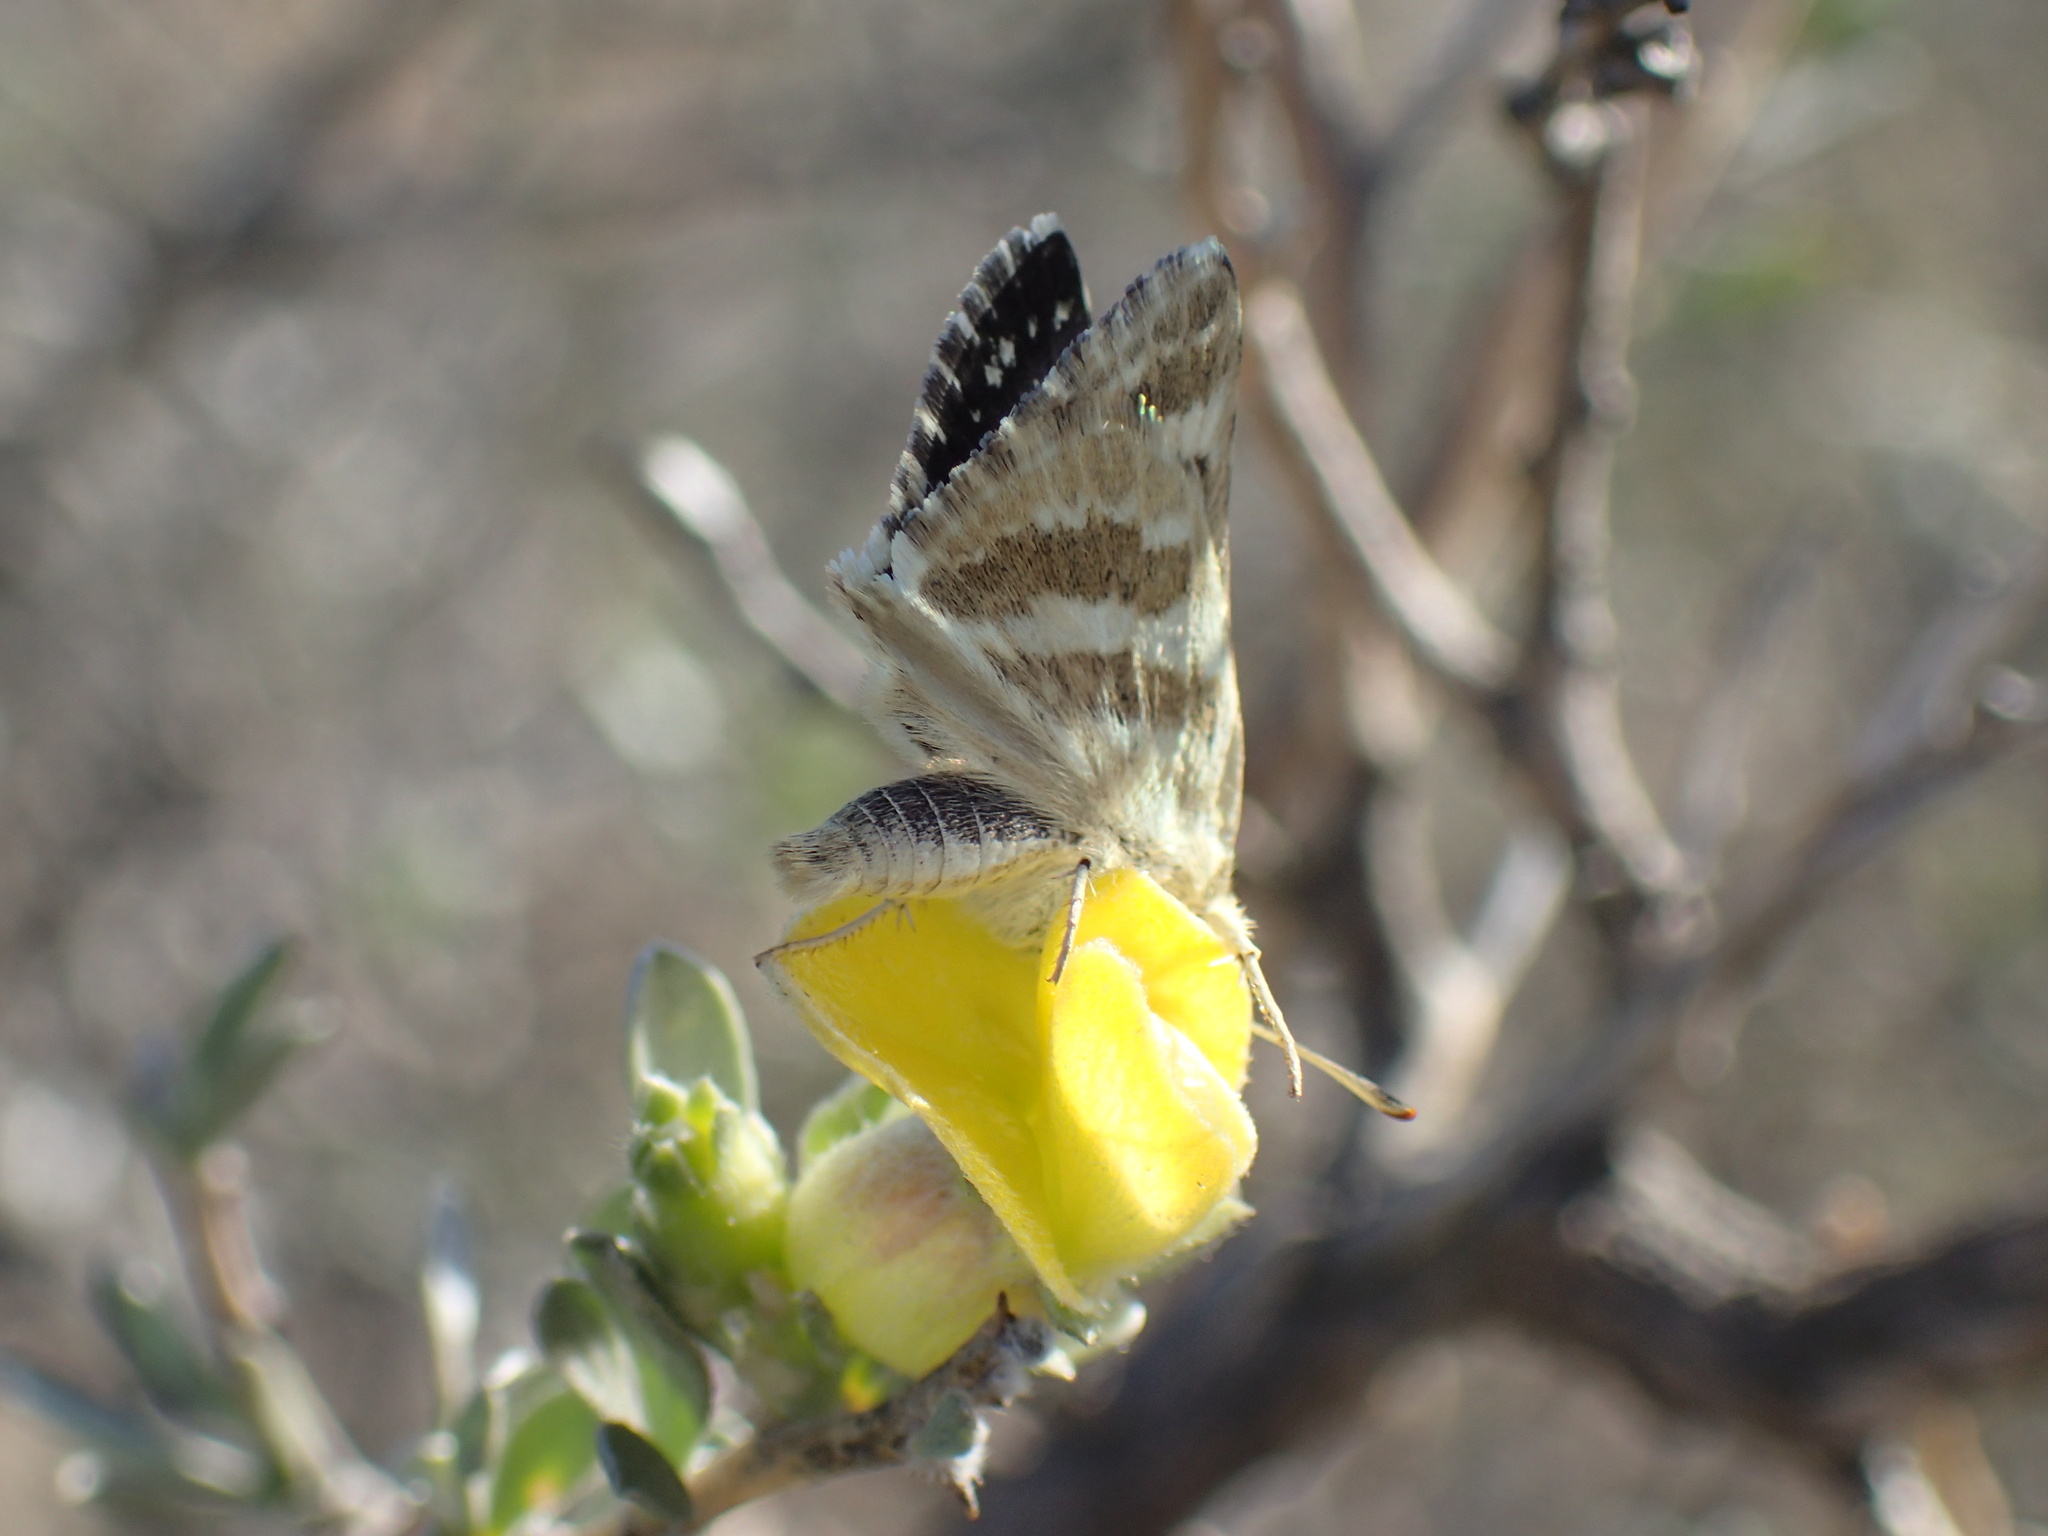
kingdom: Animalia
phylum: Arthropoda
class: Insecta
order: Lepidoptera
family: Hesperiidae
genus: Spialia
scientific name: Spialia diomus
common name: Common sandman
